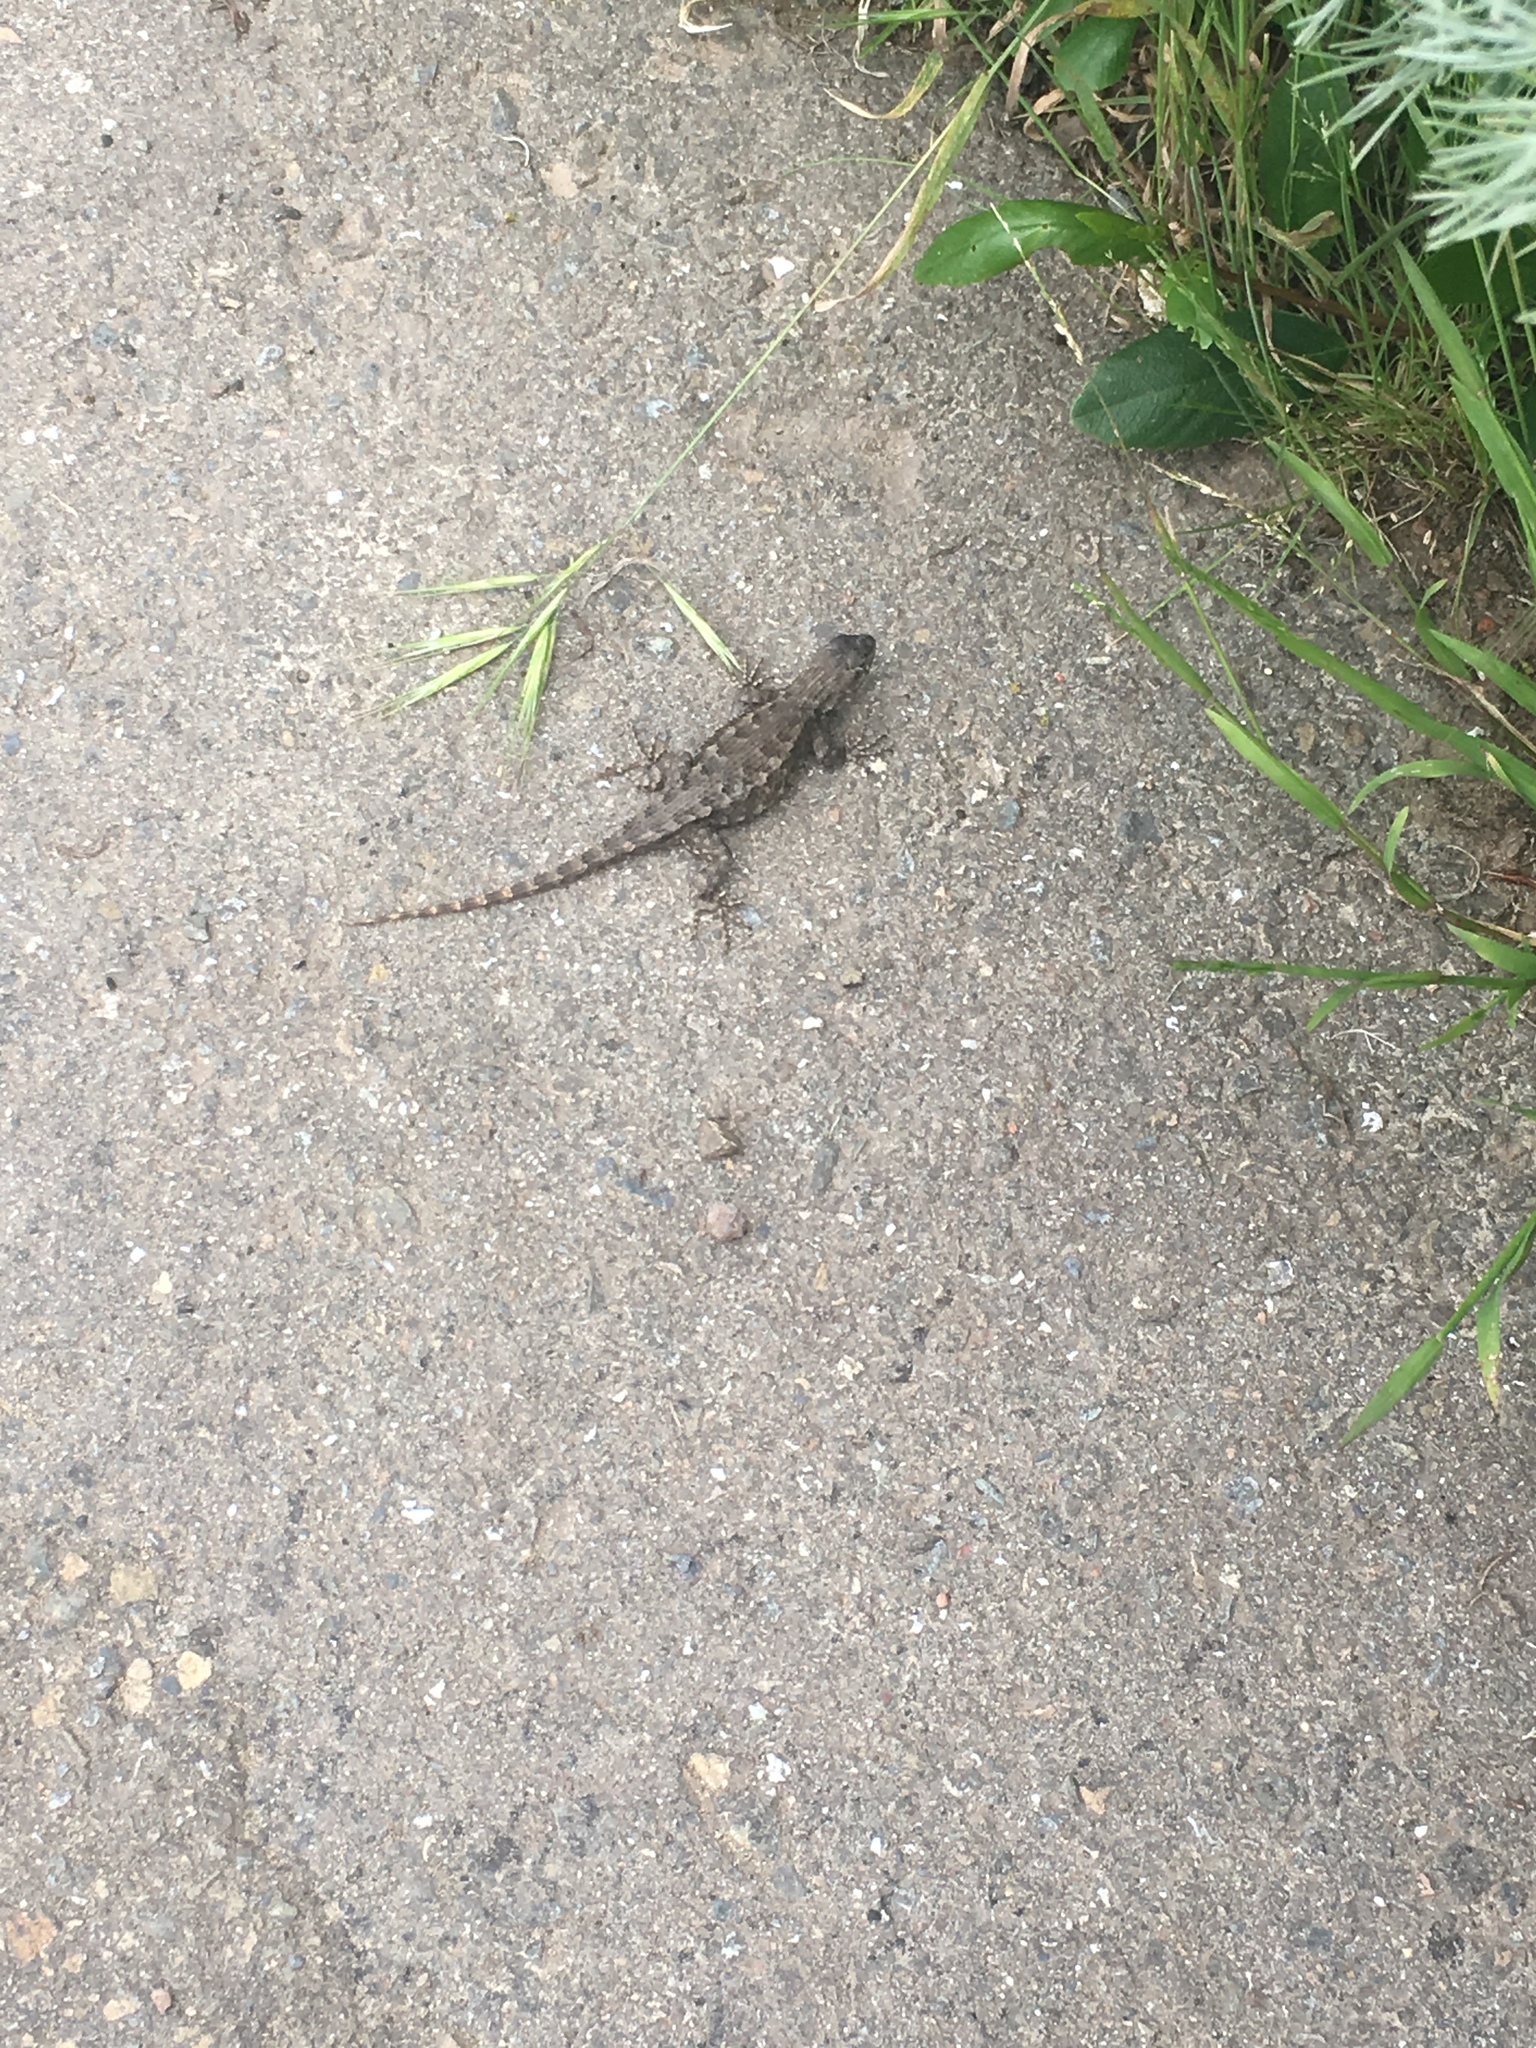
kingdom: Animalia
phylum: Chordata
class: Squamata
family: Phrynosomatidae
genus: Sceloporus
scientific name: Sceloporus occidentalis
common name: Western fence lizard
